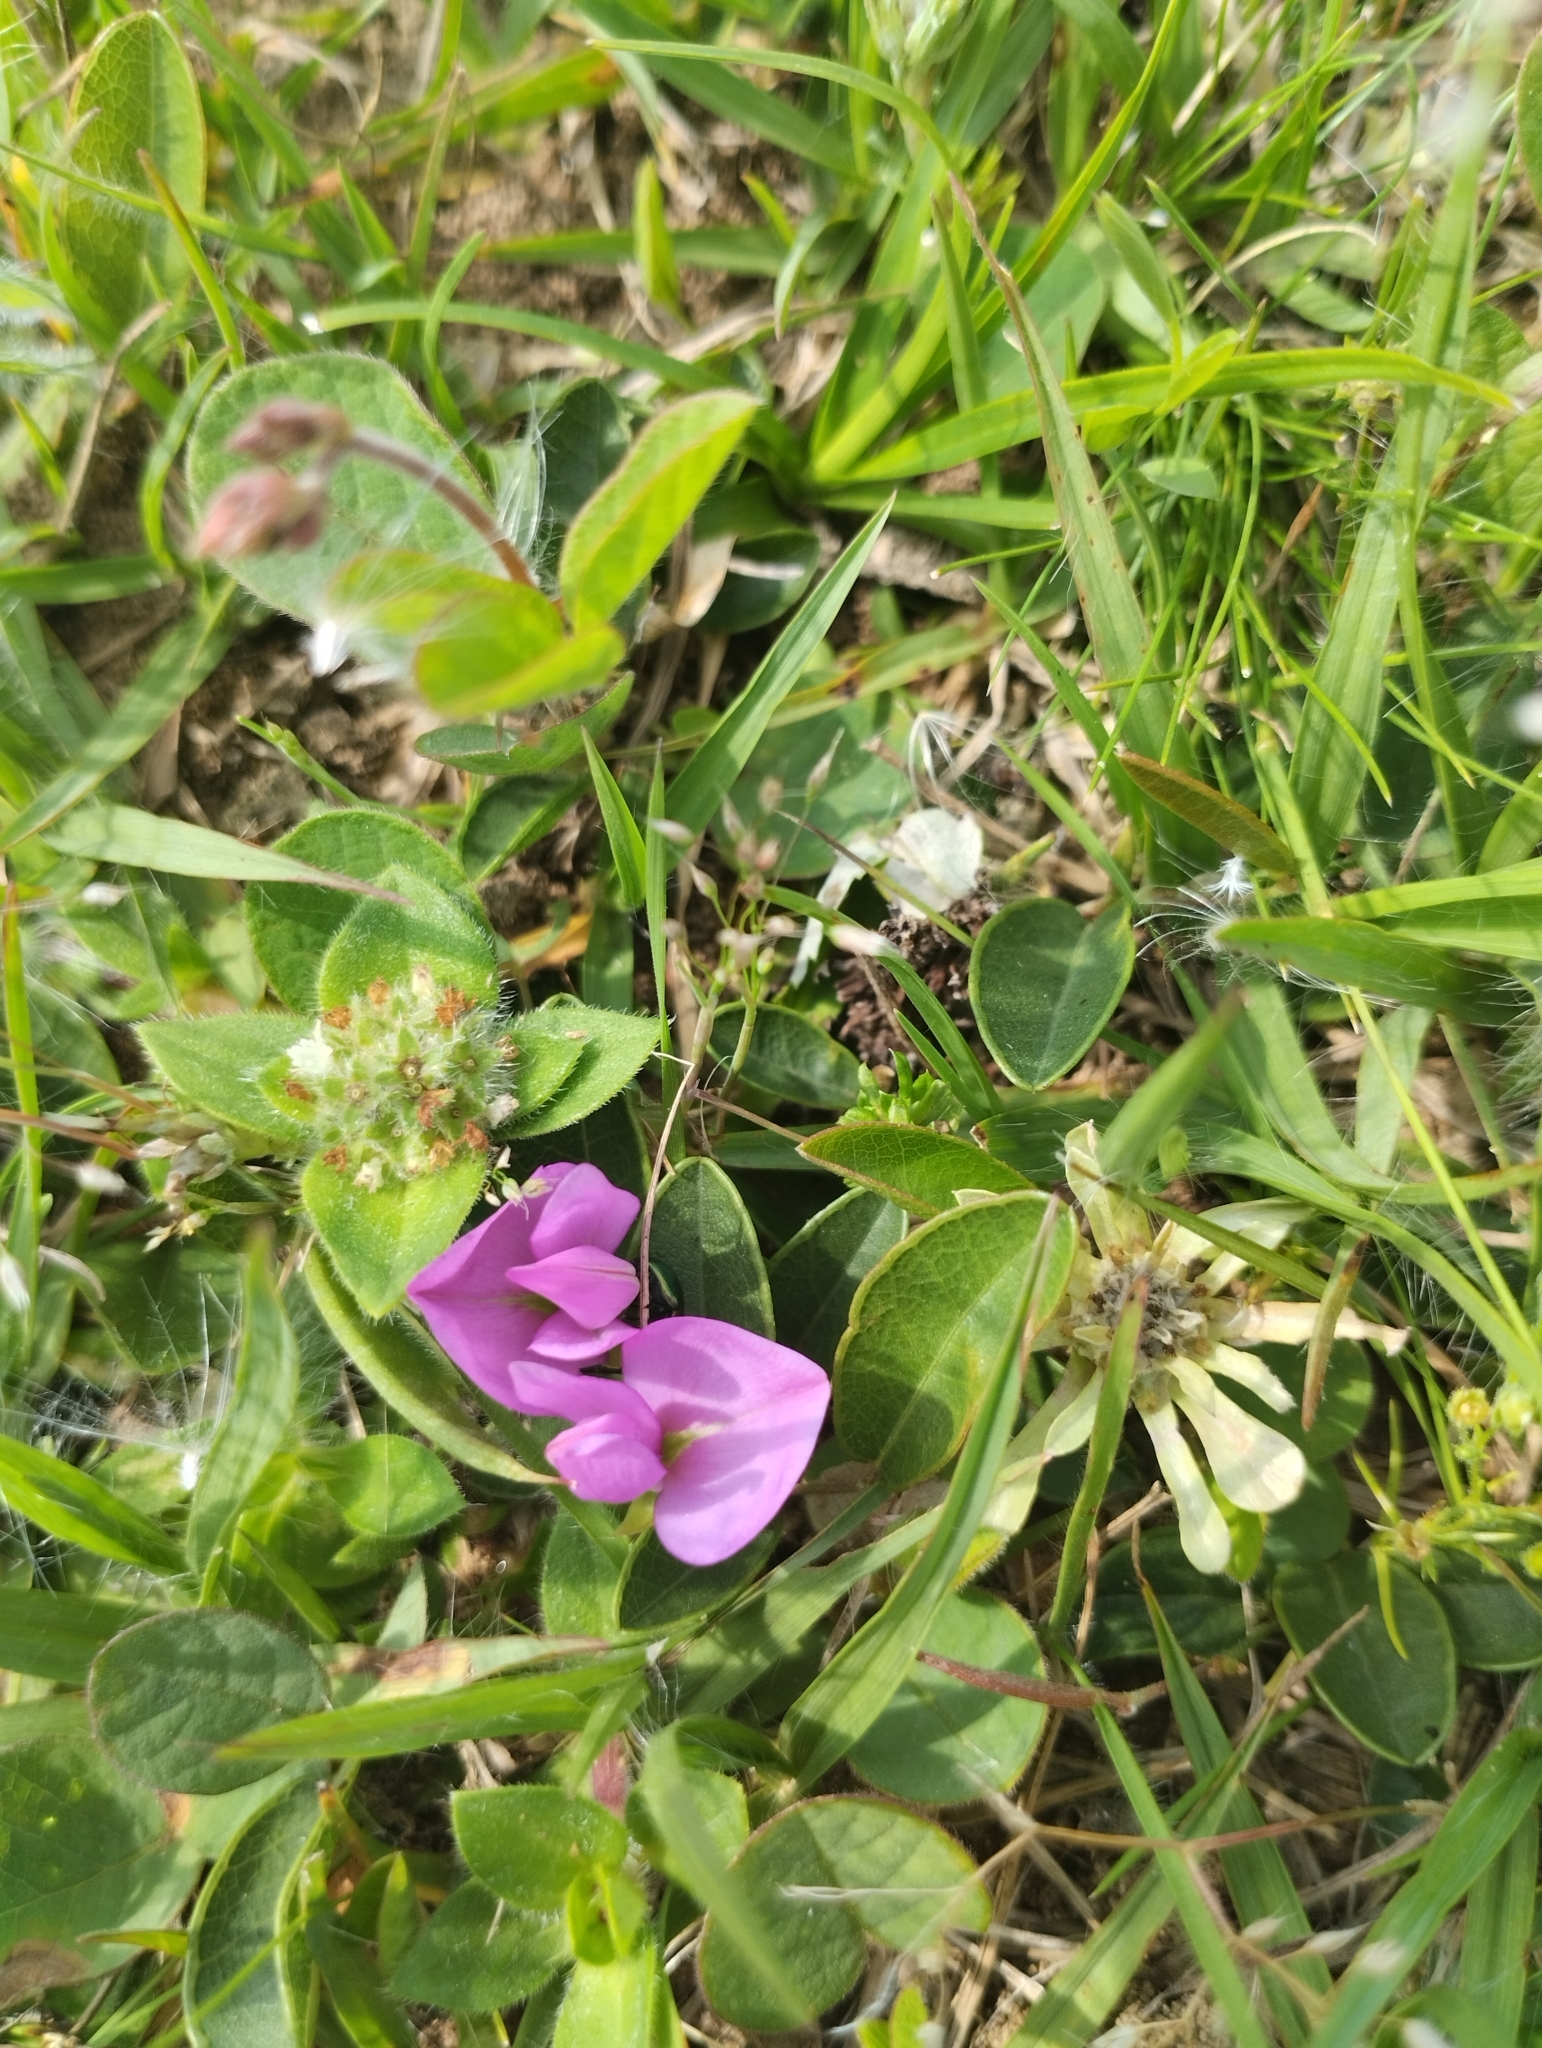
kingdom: Plantae
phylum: Tracheophyta
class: Magnoliopsida
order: Fabales
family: Fabaceae
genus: Nanogalactia
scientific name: Nanogalactia heterophylla
